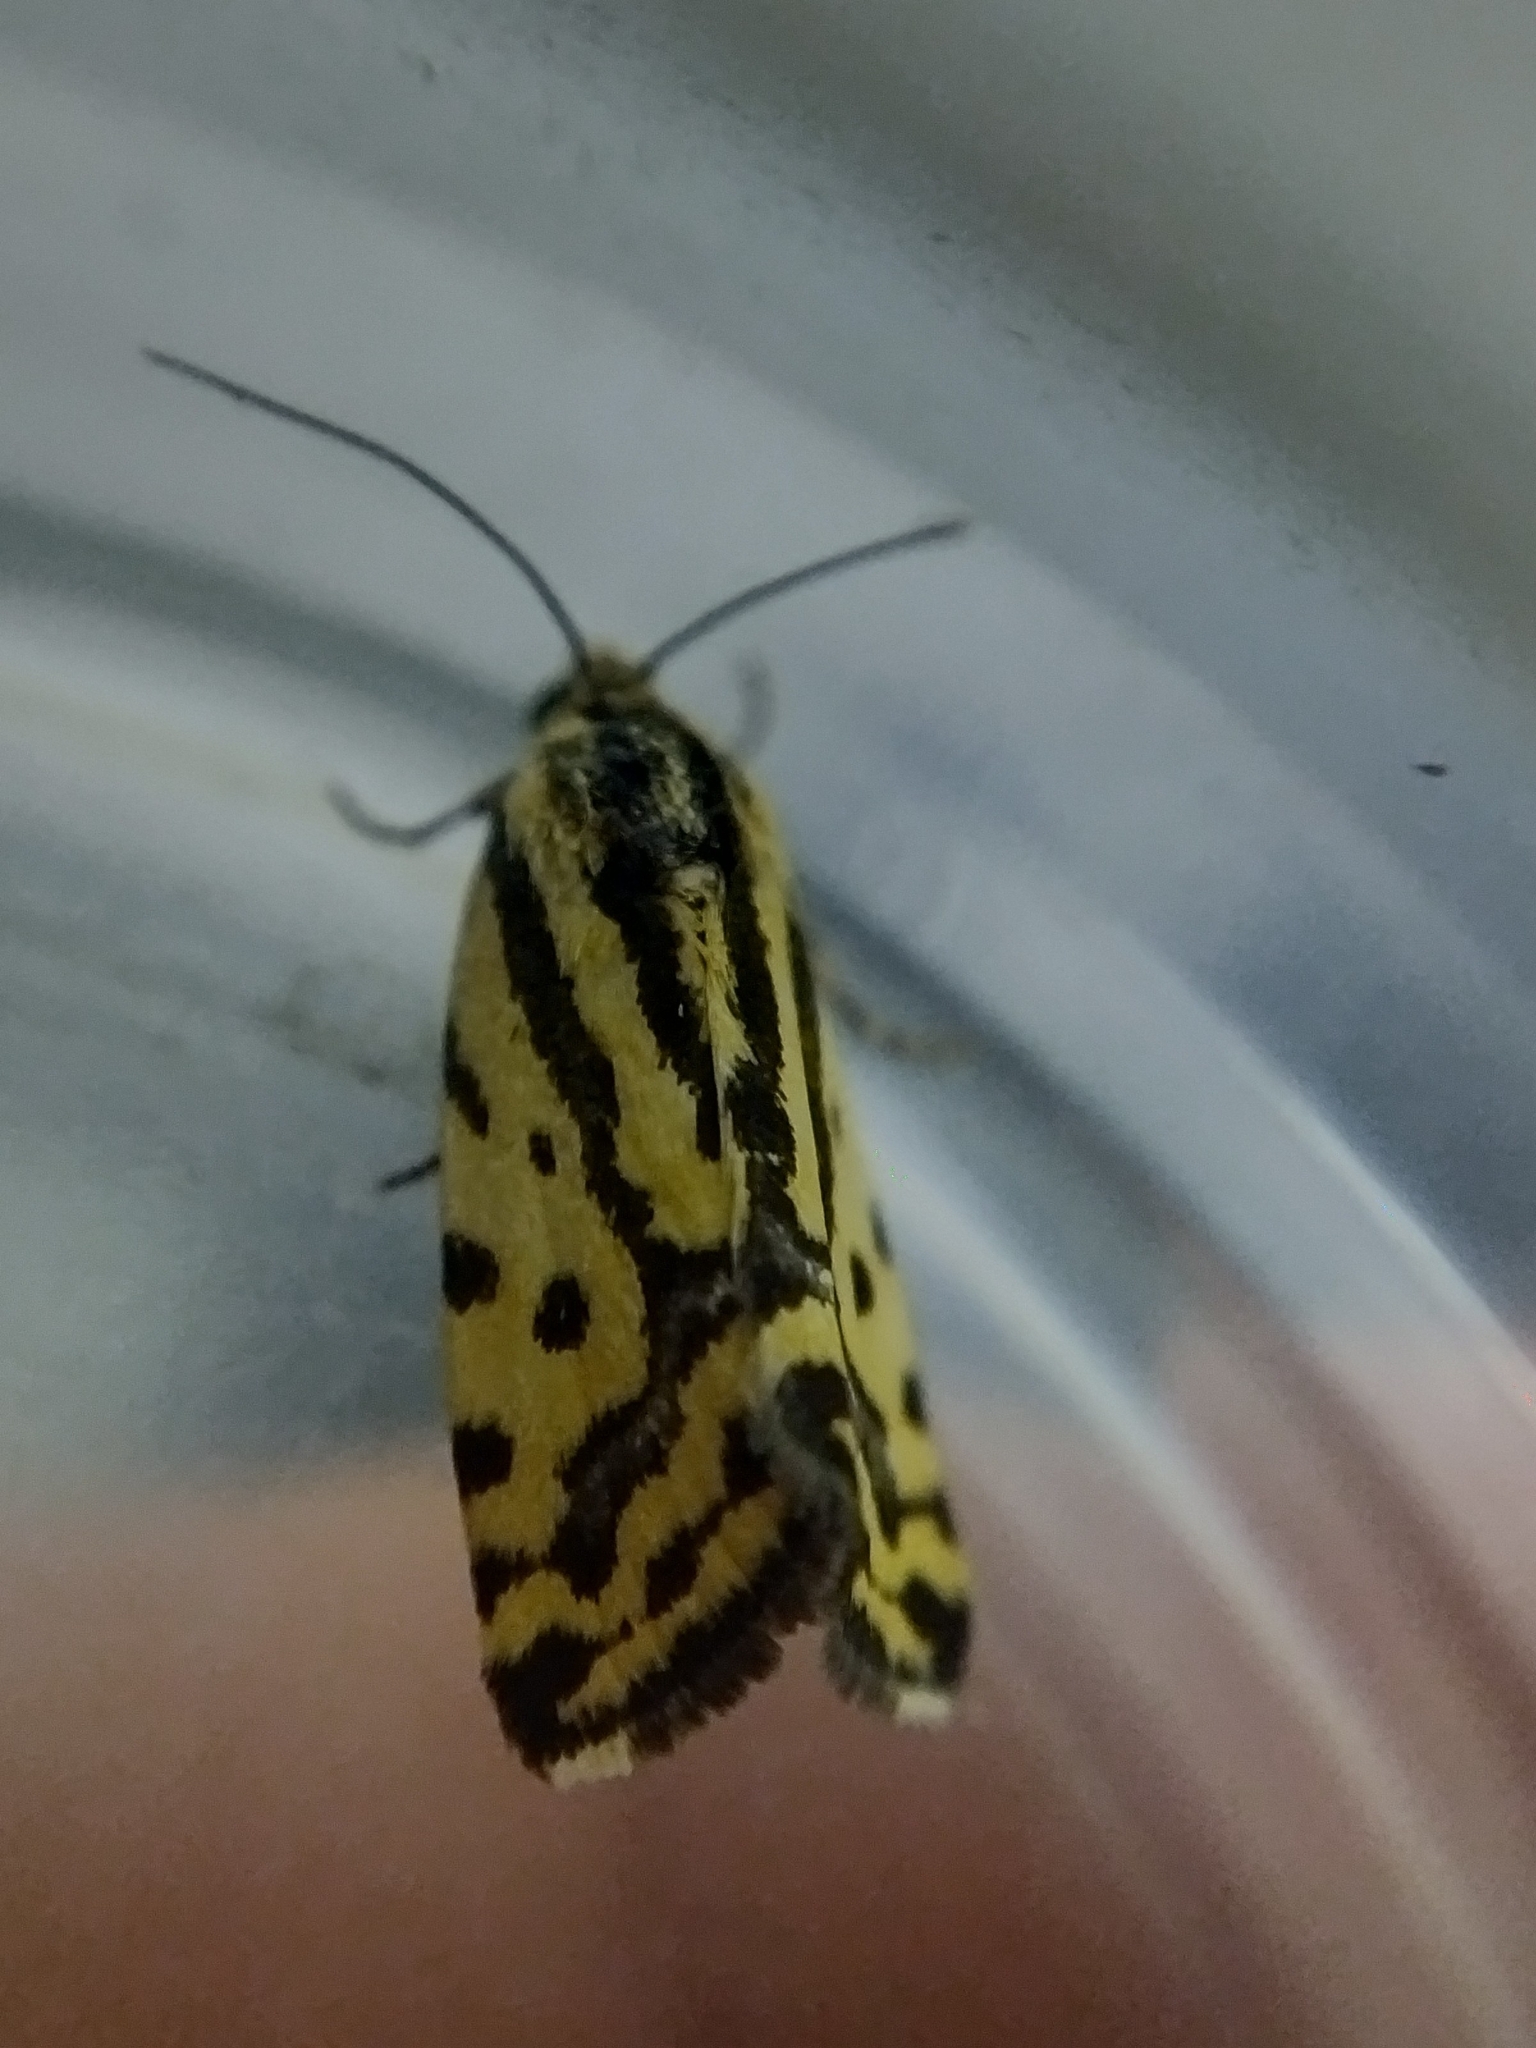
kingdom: Animalia
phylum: Arthropoda
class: Insecta
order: Lepidoptera
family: Noctuidae
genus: Acontia
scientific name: Acontia trabealis
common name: Spotted sulphur
